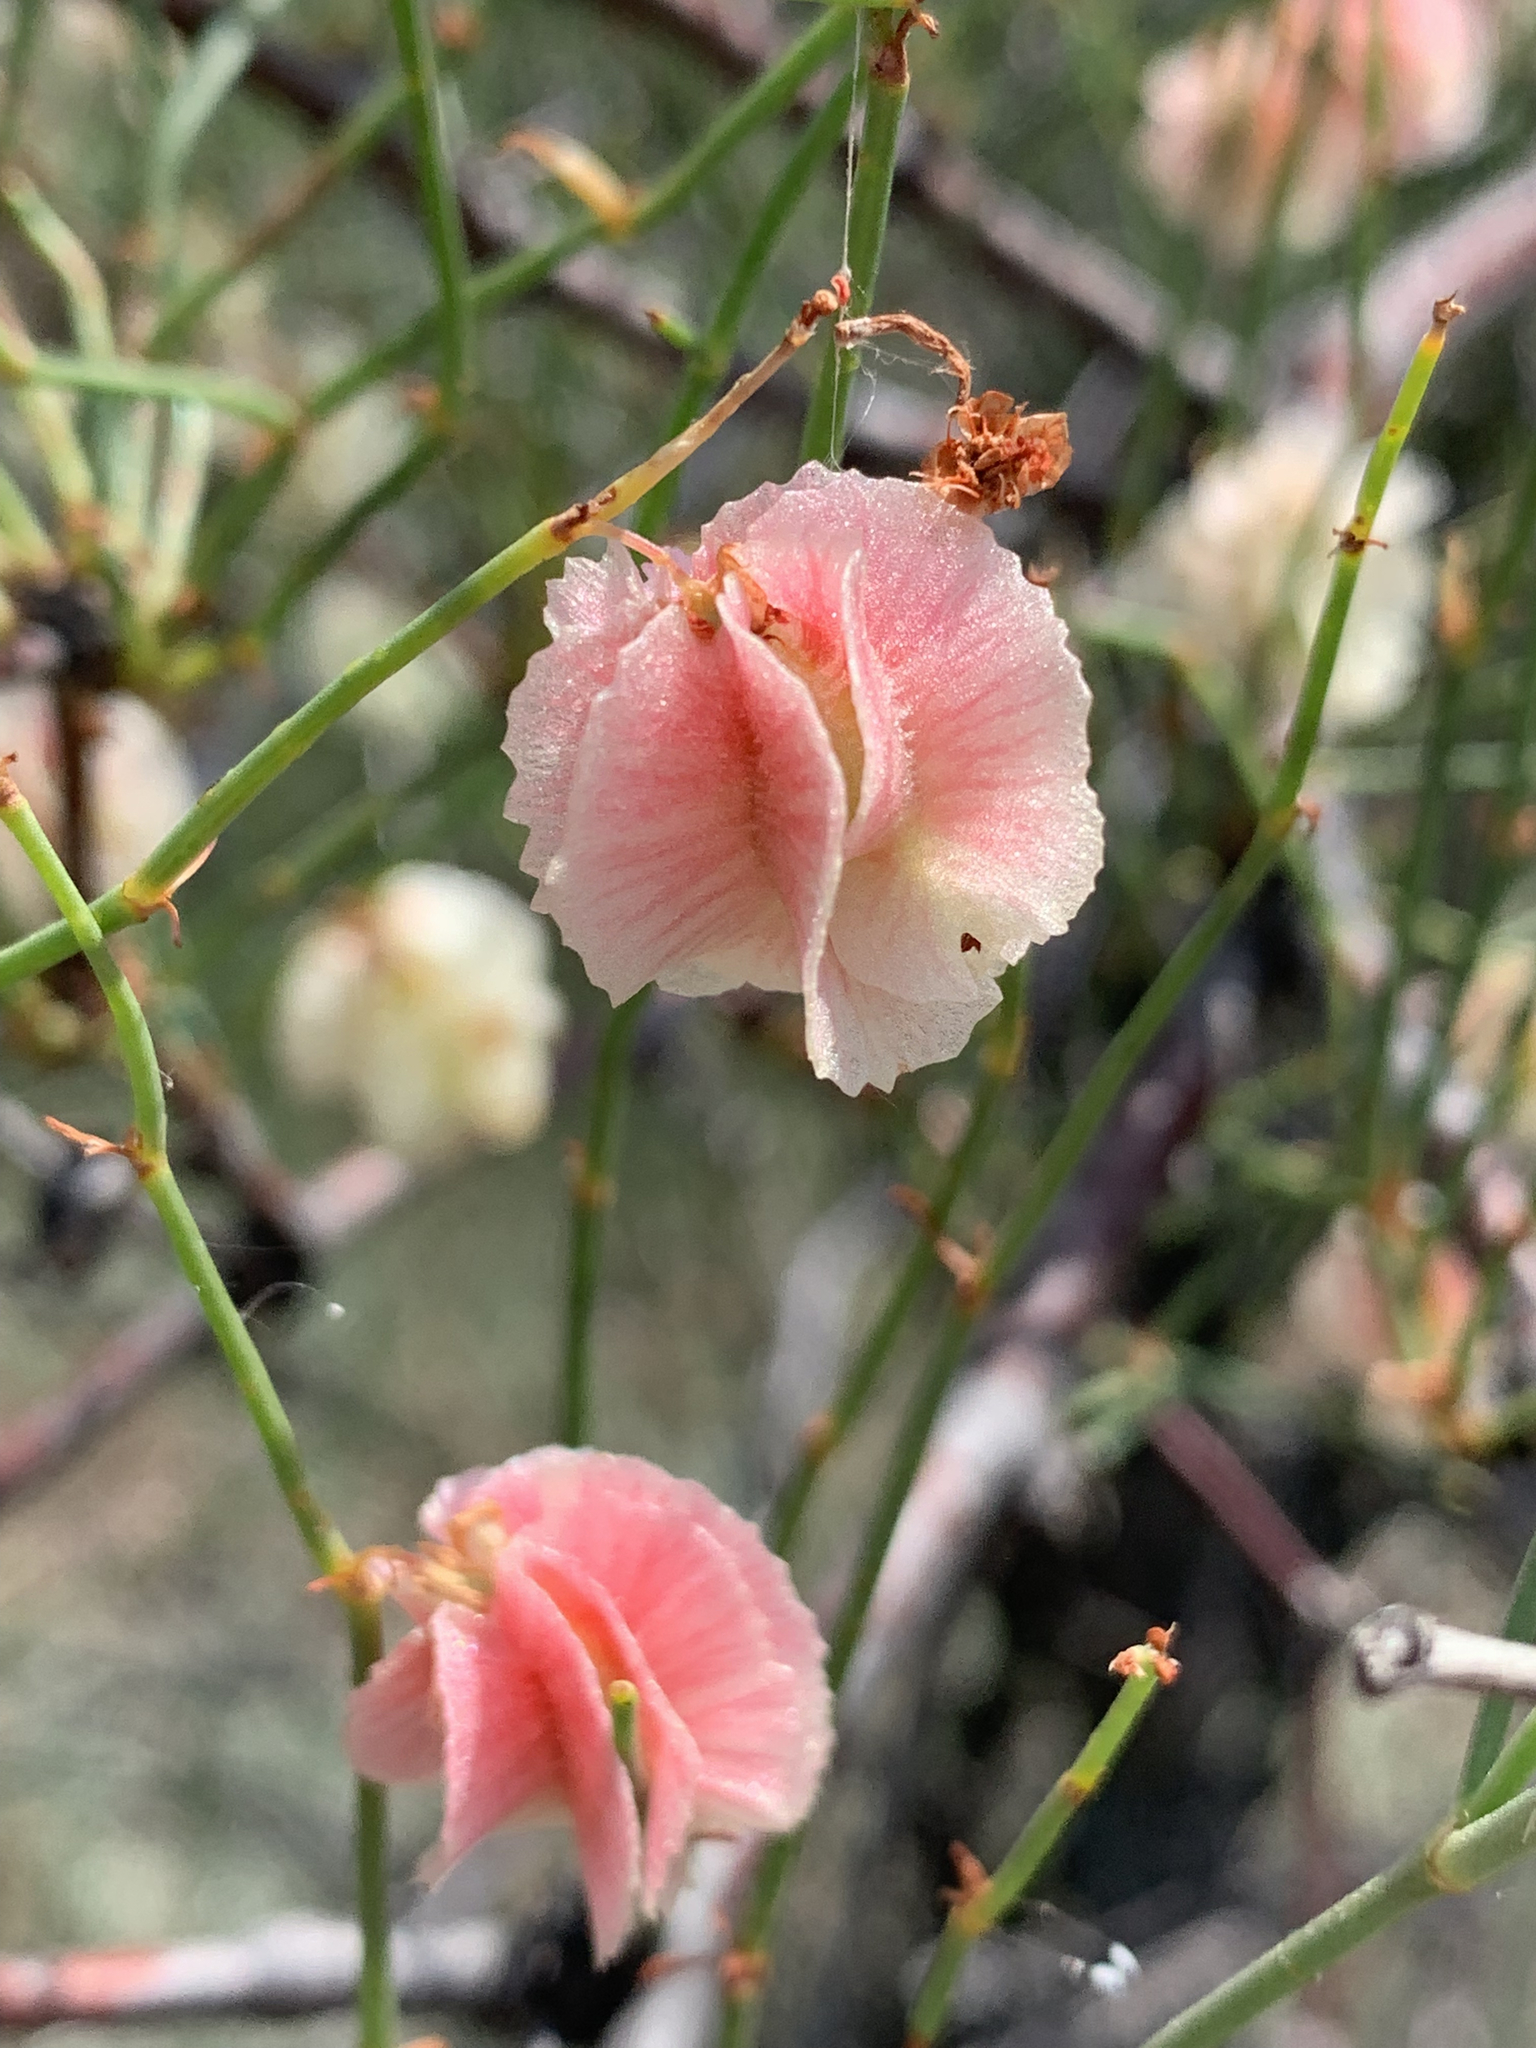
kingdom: Plantae
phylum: Tracheophyta
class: Magnoliopsida
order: Caryophyllales
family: Polygonaceae
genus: Calligonum
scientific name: Calligonum aphyllum
